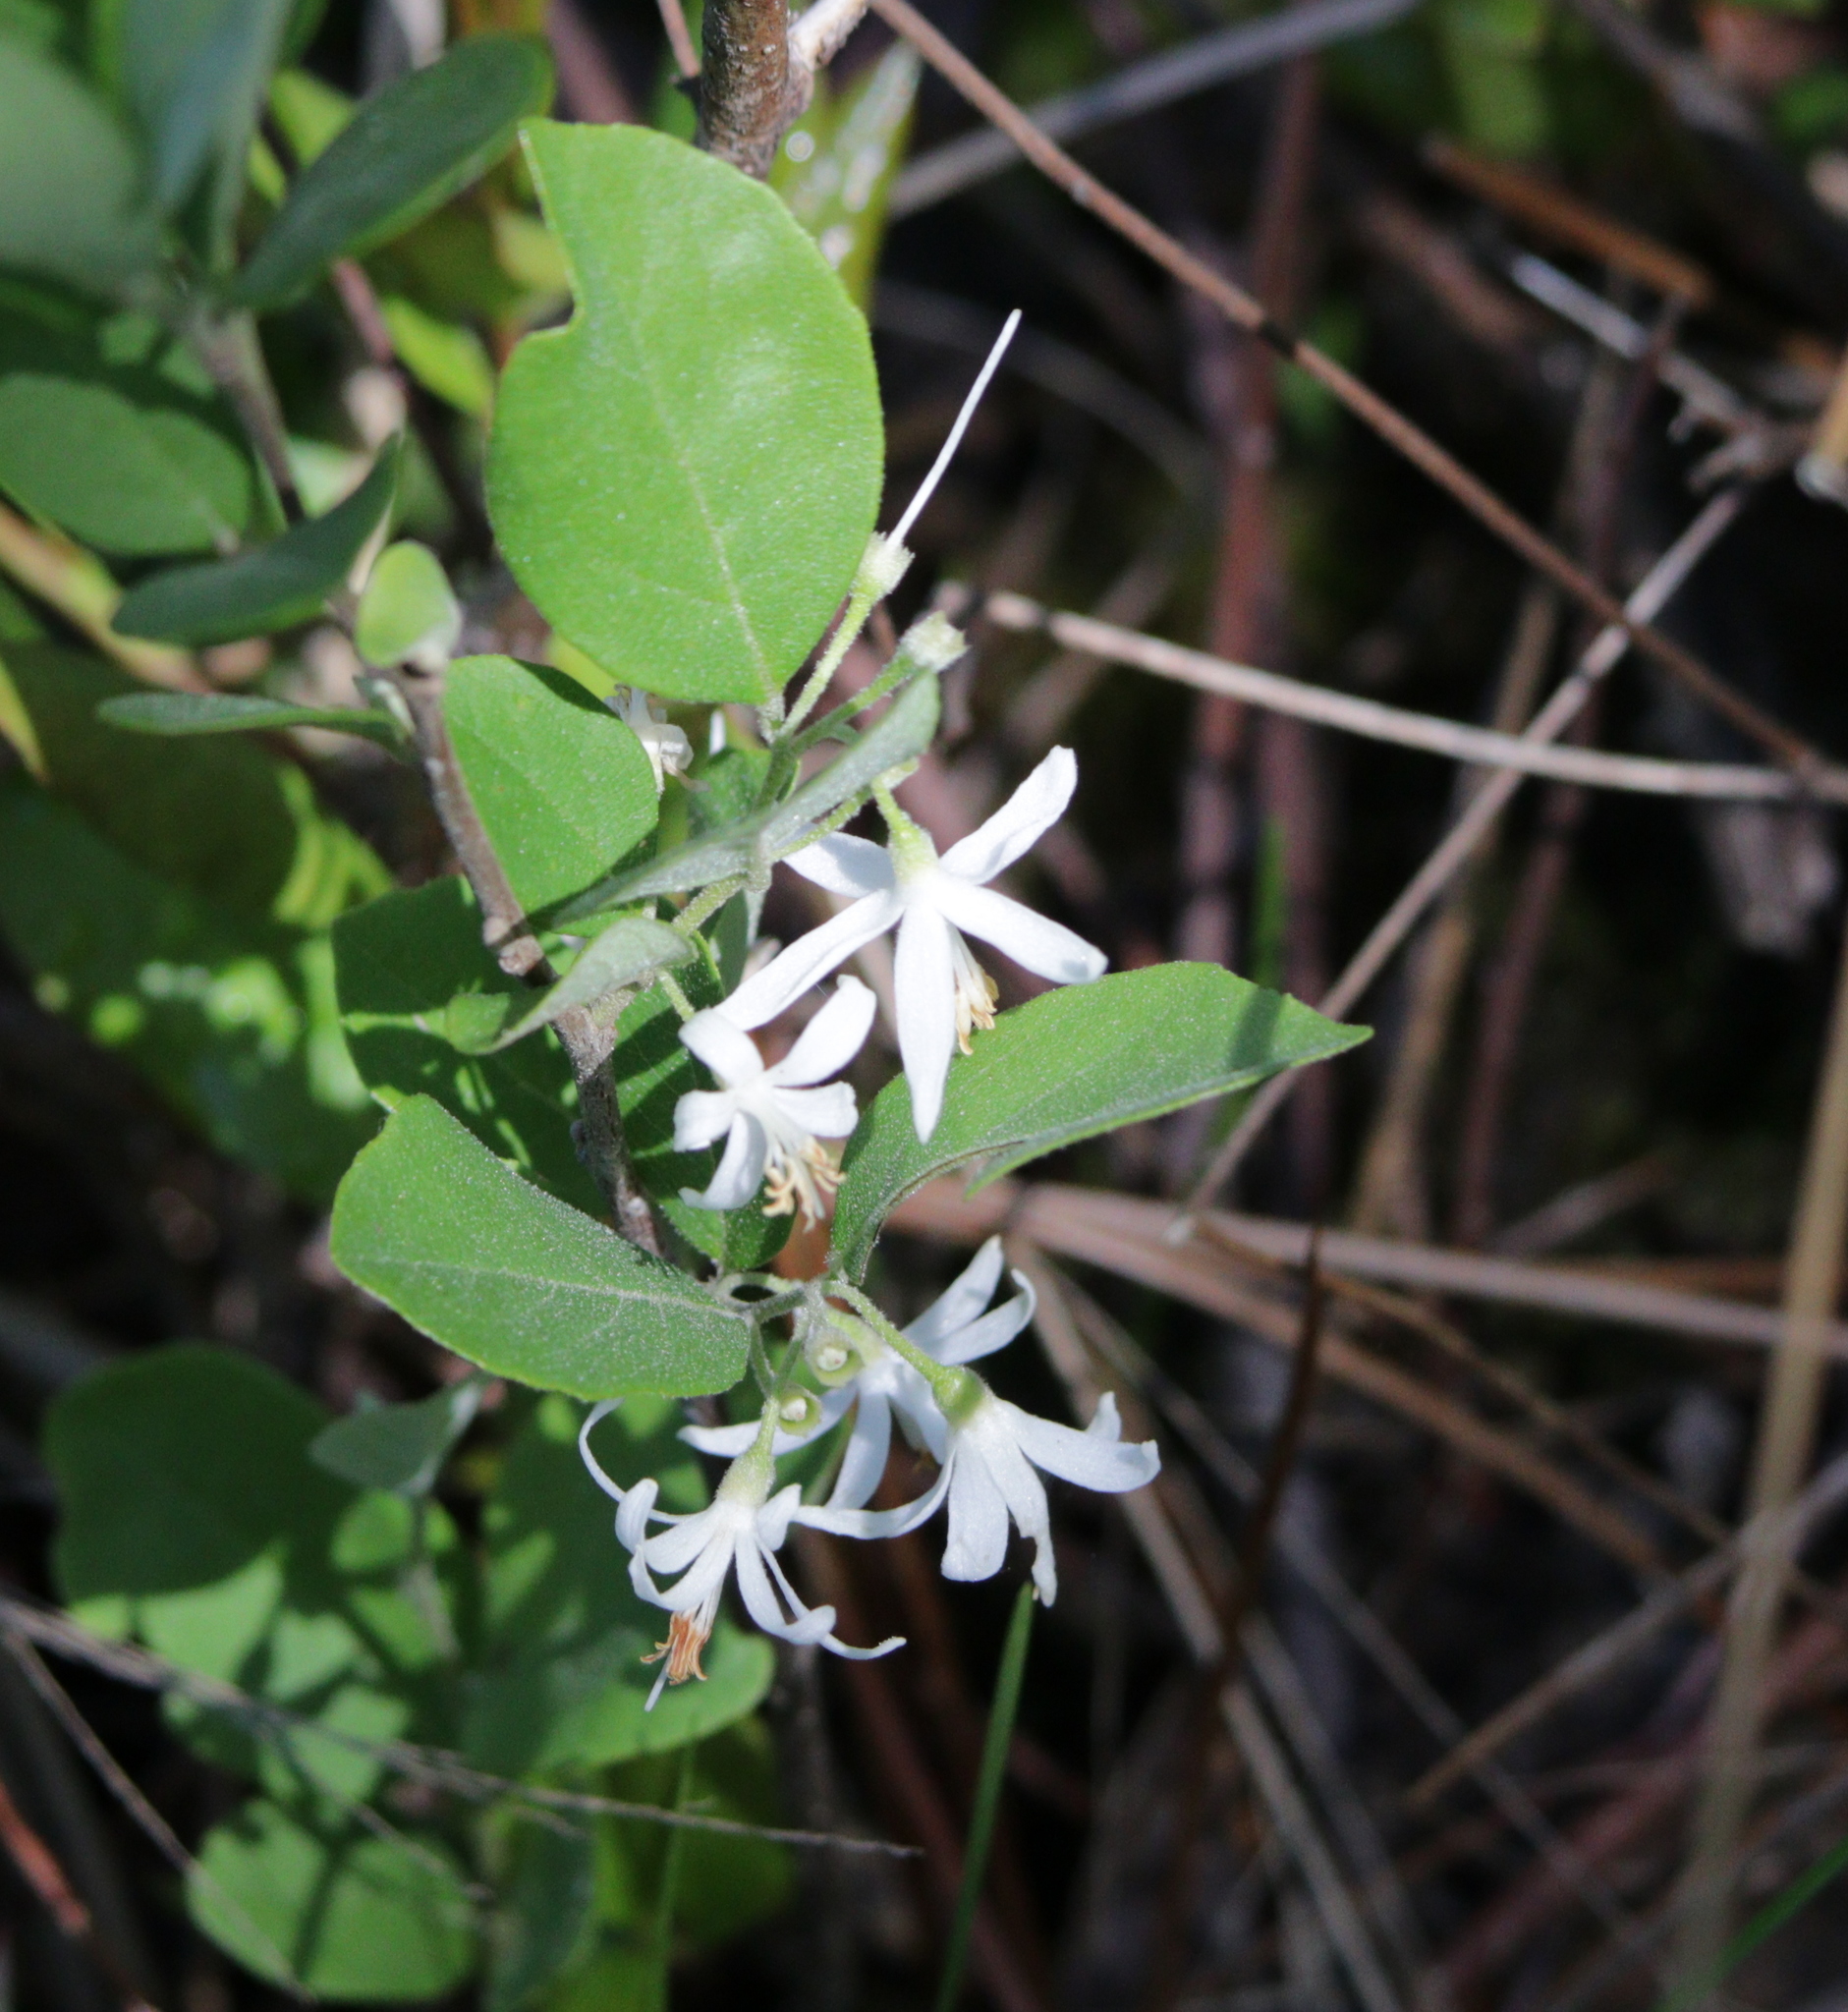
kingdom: Plantae
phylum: Tracheophyta
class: Magnoliopsida
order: Ericales
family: Styracaceae
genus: Styrax
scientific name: Styrax americanus
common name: American snowbell
